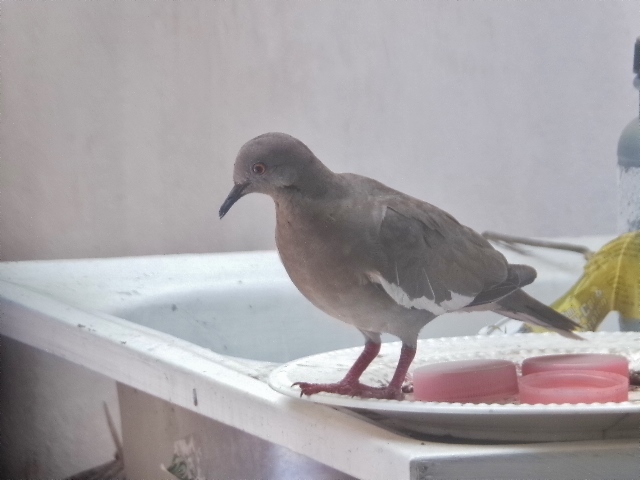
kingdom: Animalia
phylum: Chordata
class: Aves
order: Columbiformes
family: Columbidae
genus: Zenaida
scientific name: Zenaida asiatica
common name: White-winged dove
